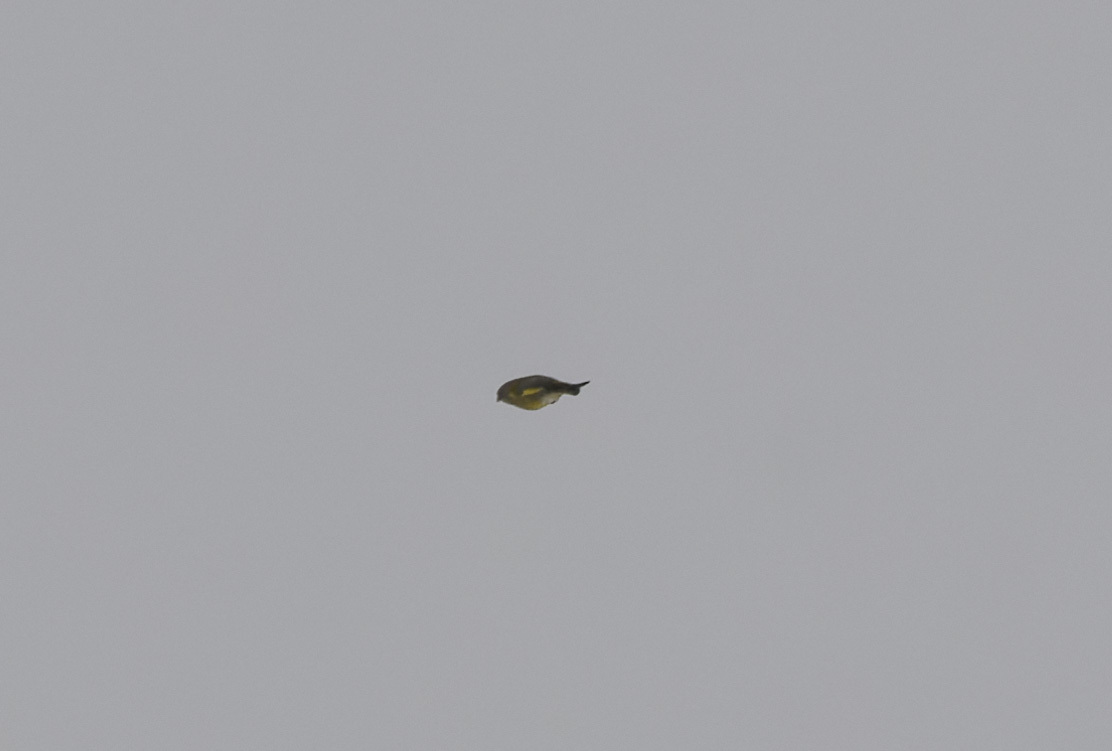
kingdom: Plantae
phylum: Tracheophyta
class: Liliopsida
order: Poales
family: Poaceae
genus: Chloris
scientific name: Chloris chloris
